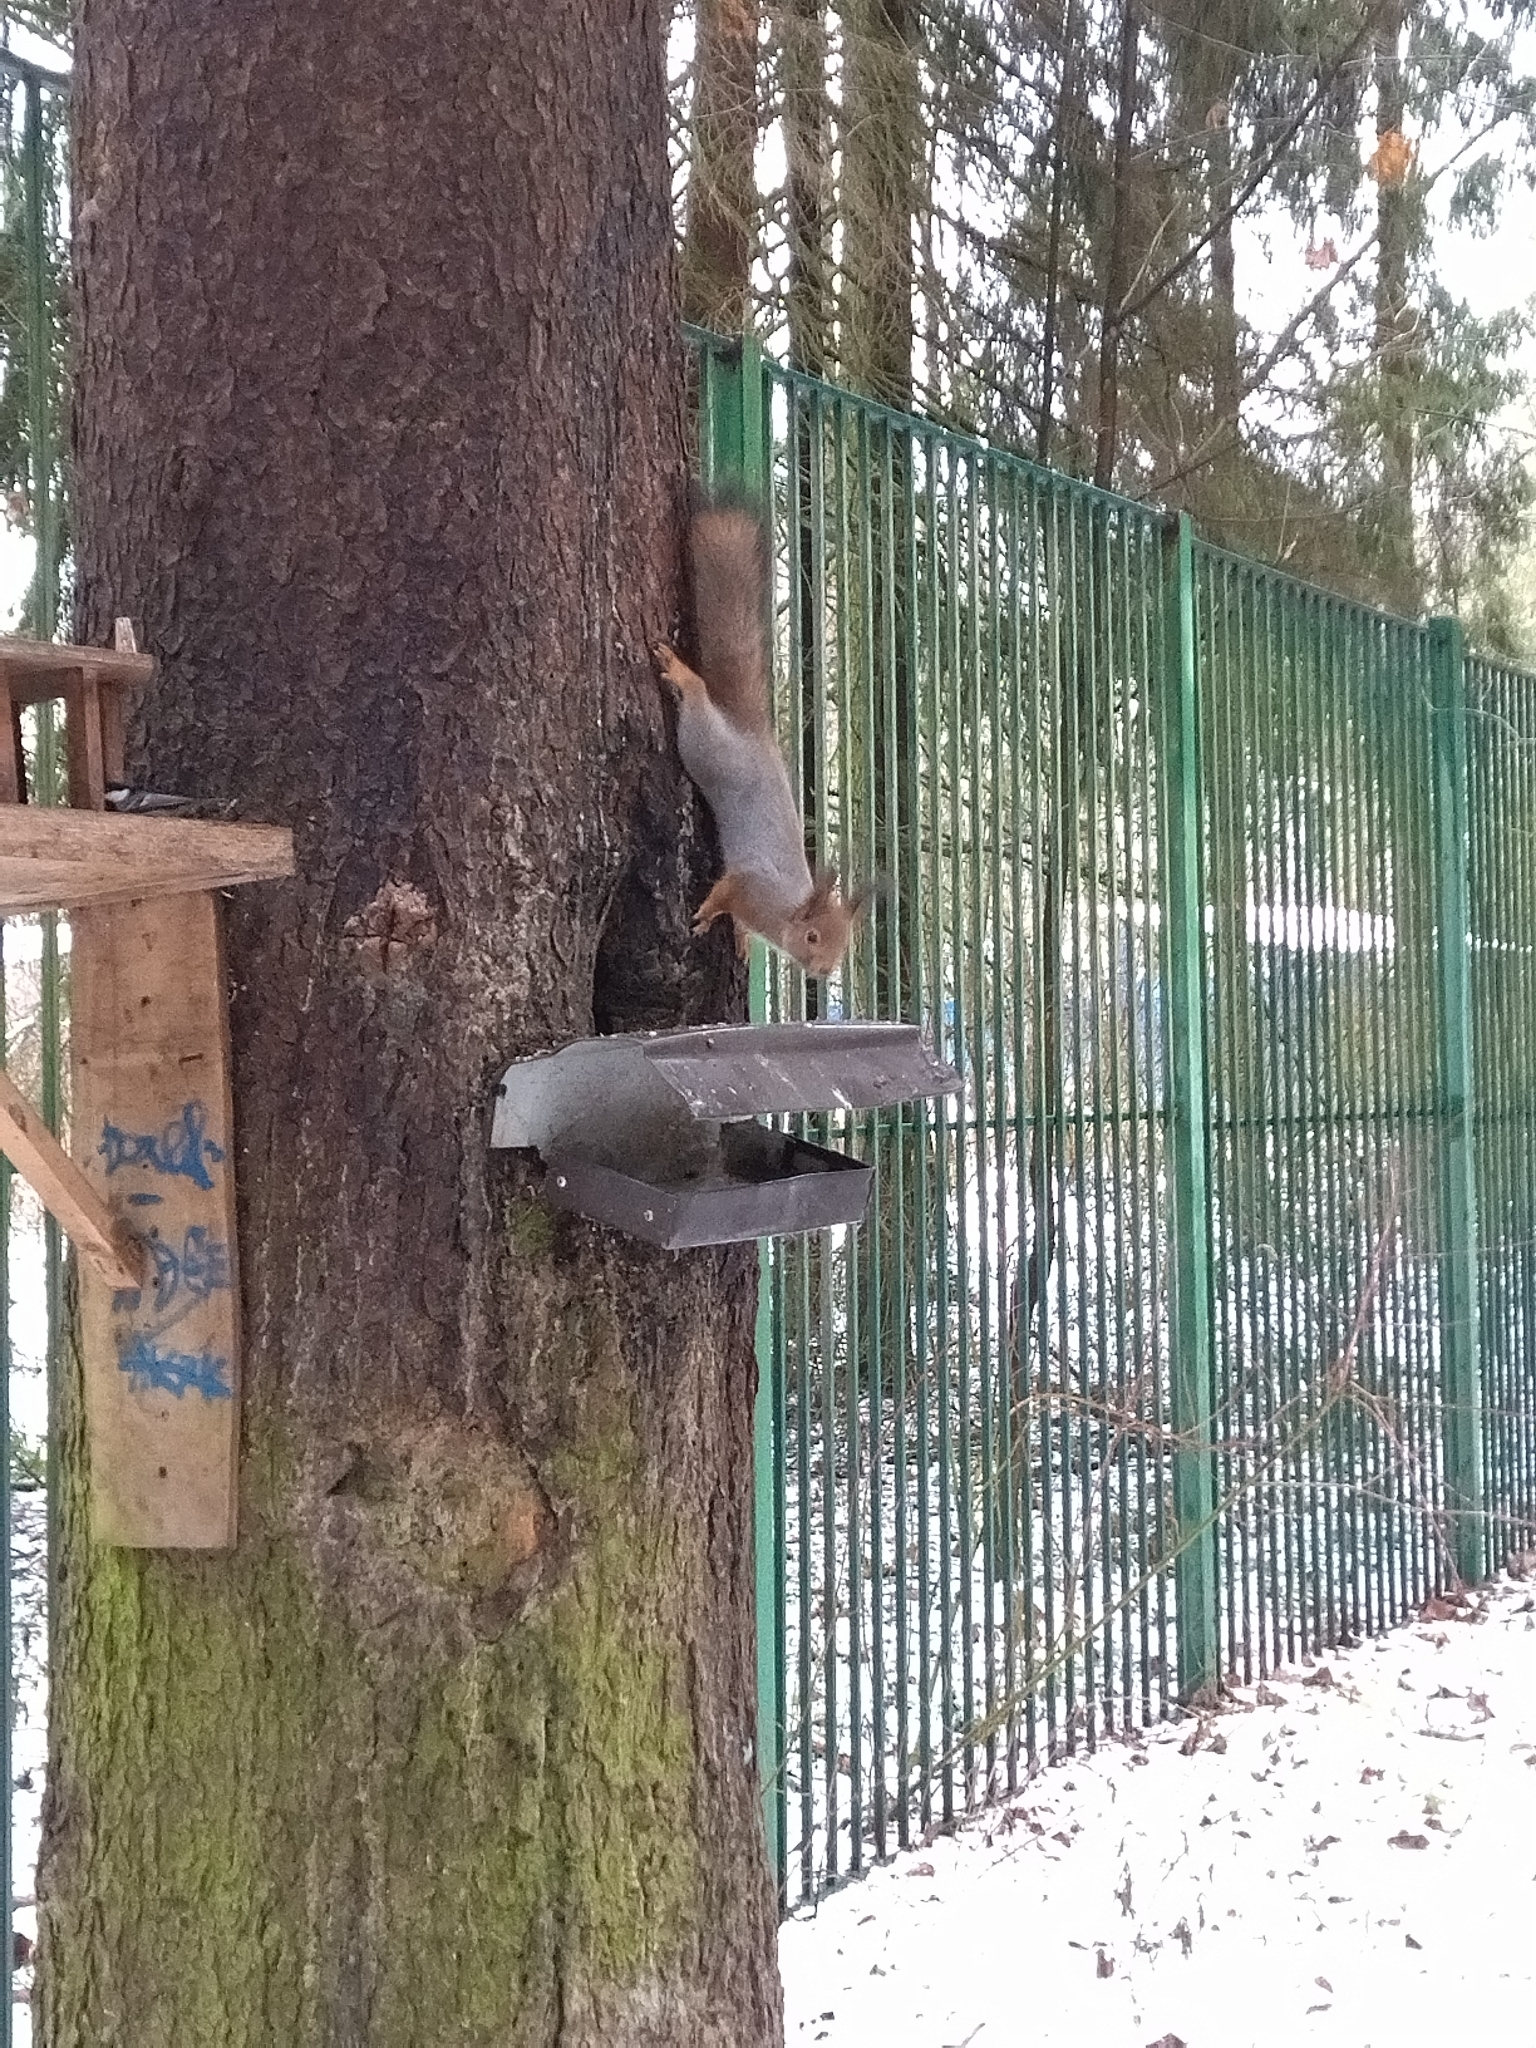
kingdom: Animalia
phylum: Chordata
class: Mammalia
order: Rodentia
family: Sciuridae
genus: Sciurus
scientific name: Sciurus vulgaris
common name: Eurasian red squirrel
